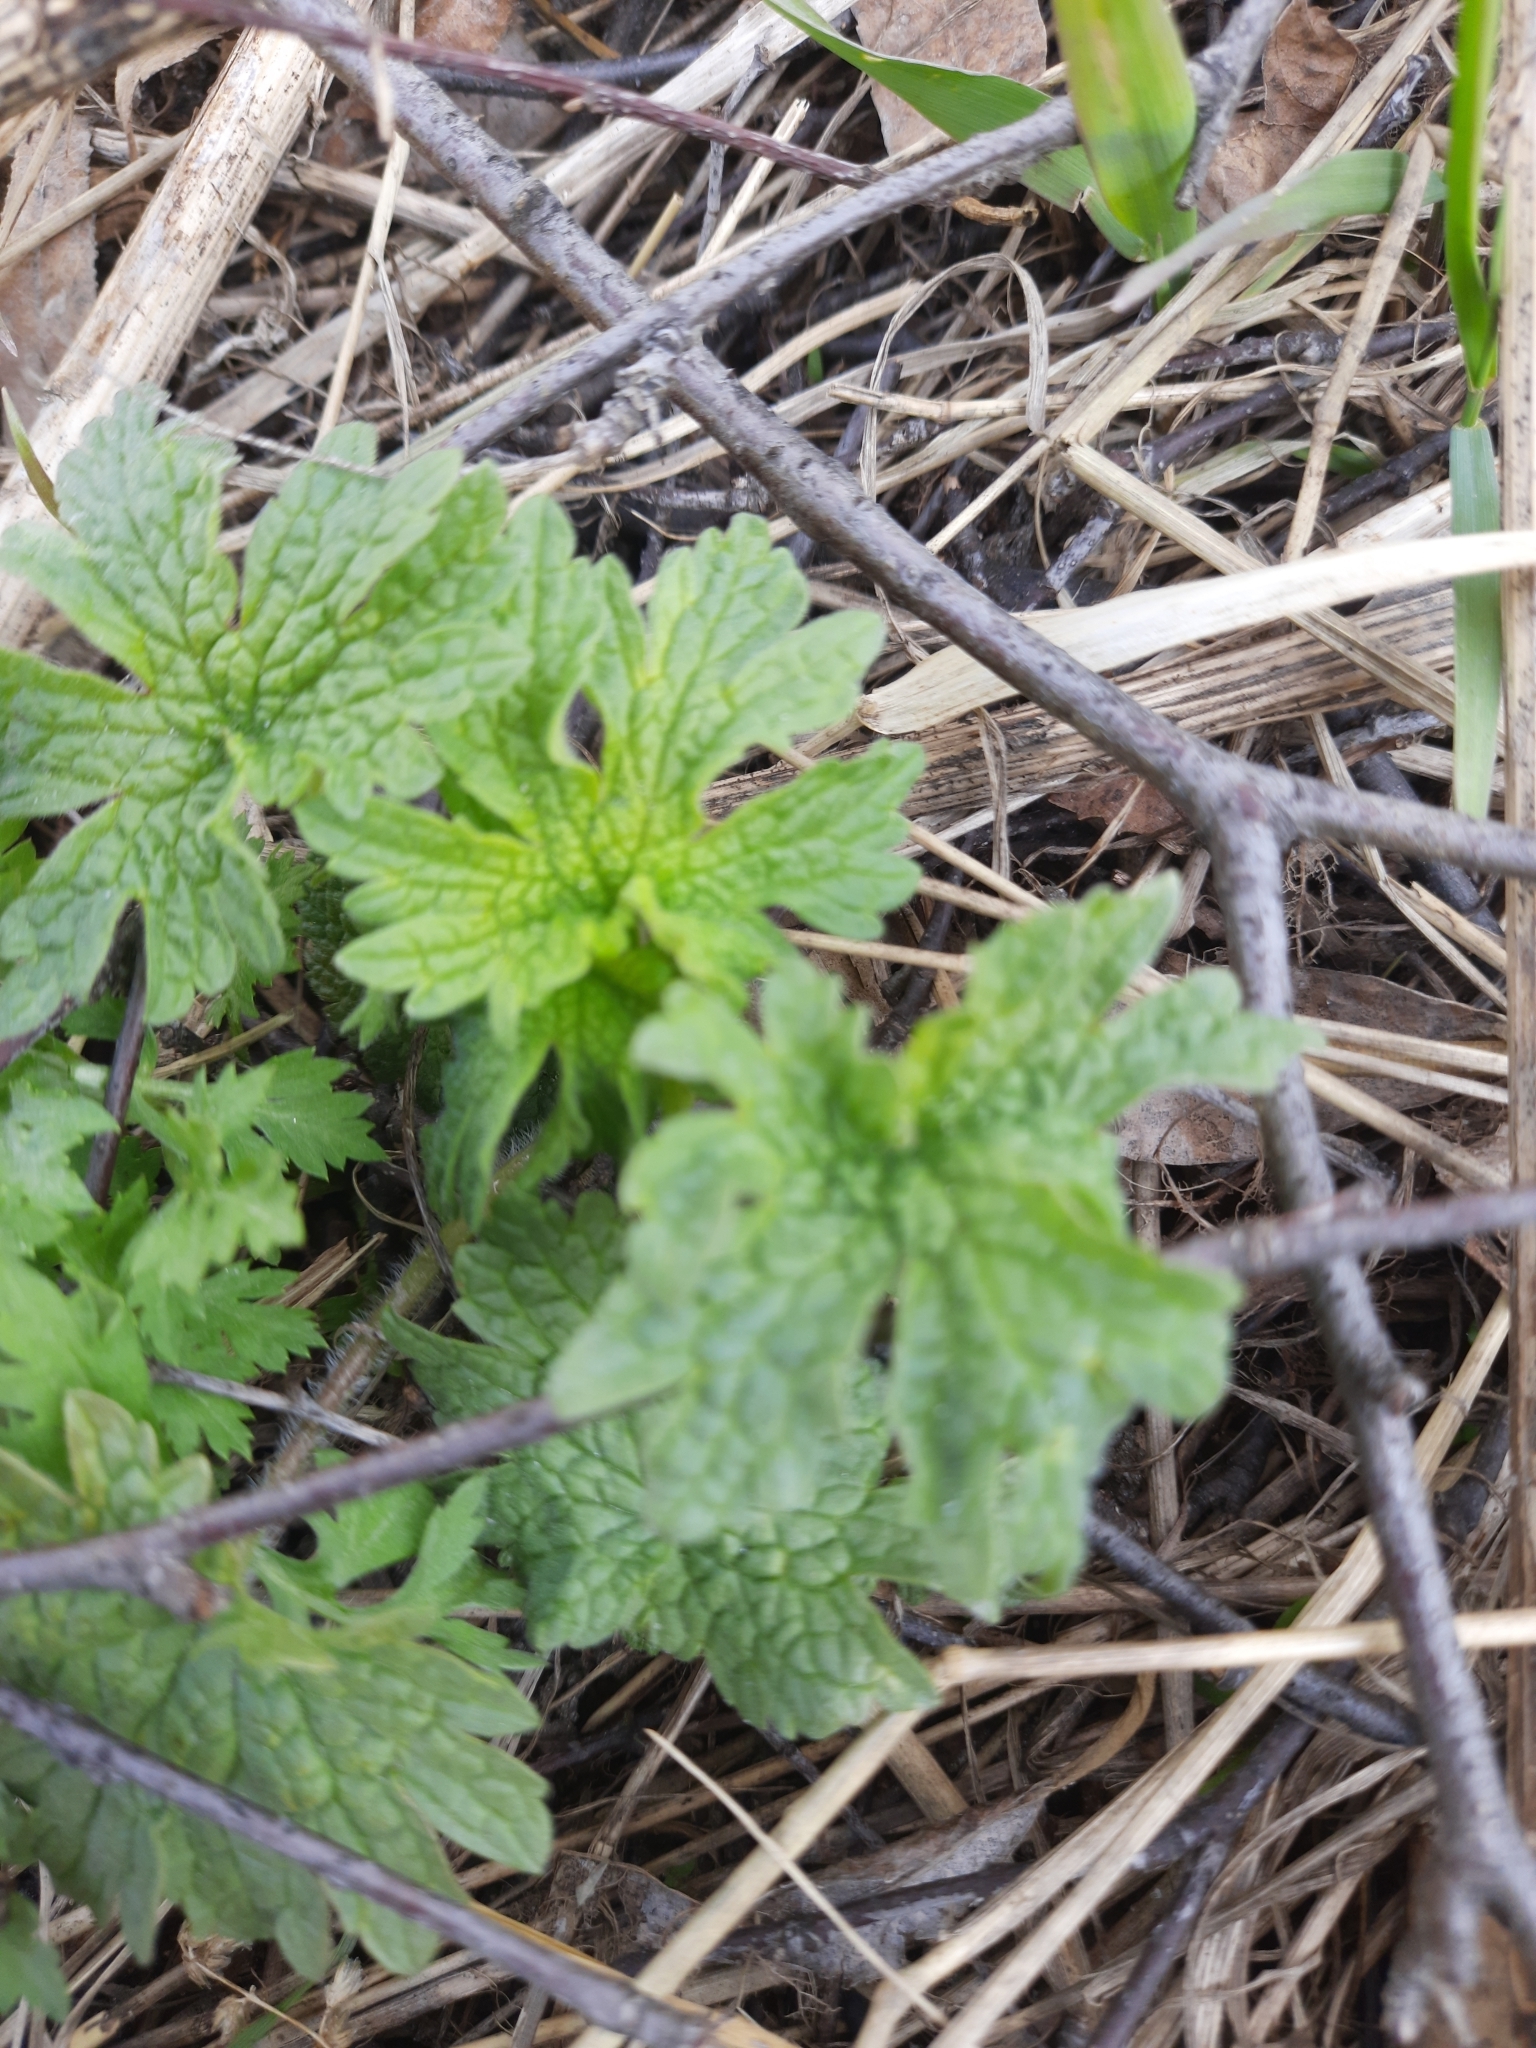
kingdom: Plantae
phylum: Tracheophyta
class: Magnoliopsida
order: Lamiales
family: Lamiaceae
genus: Leonurus
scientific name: Leonurus quinquelobatus
